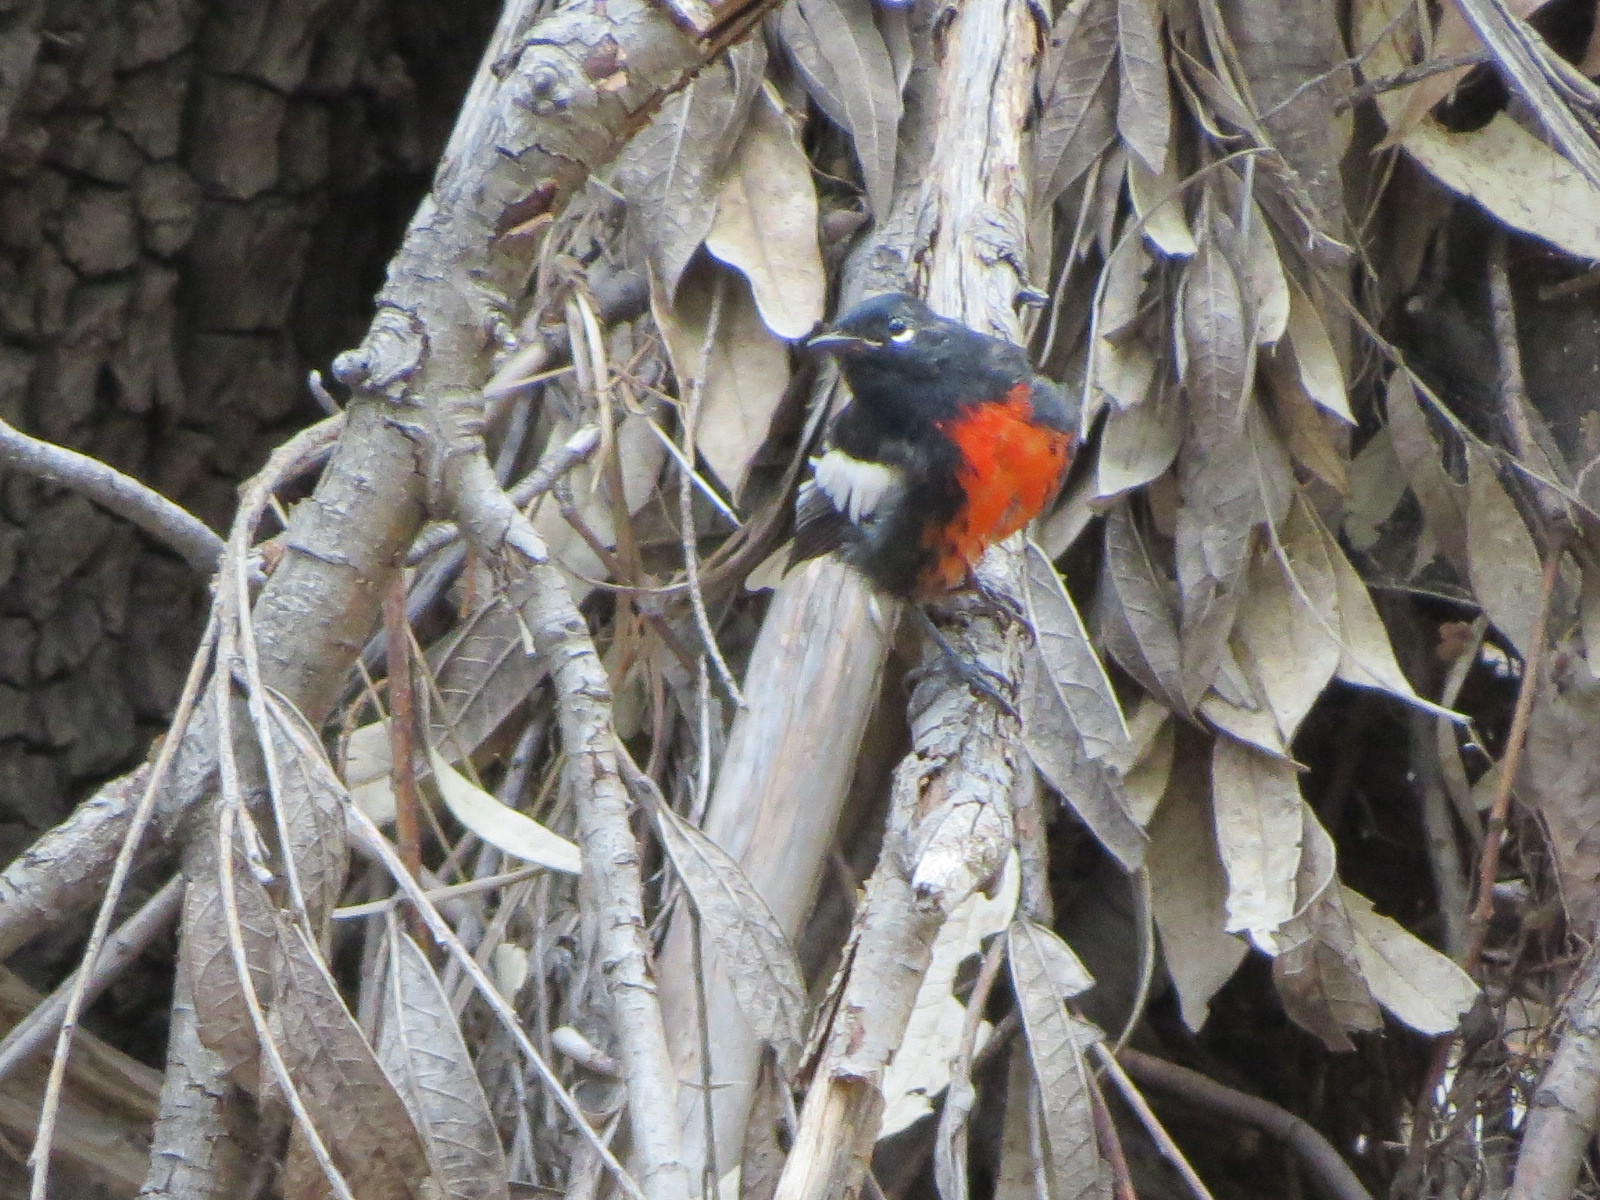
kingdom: Animalia
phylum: Chordata
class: Aves
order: Passeriformes
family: Parulidae
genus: Myioborus
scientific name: Myioborus pictus
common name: Painted whitestart
